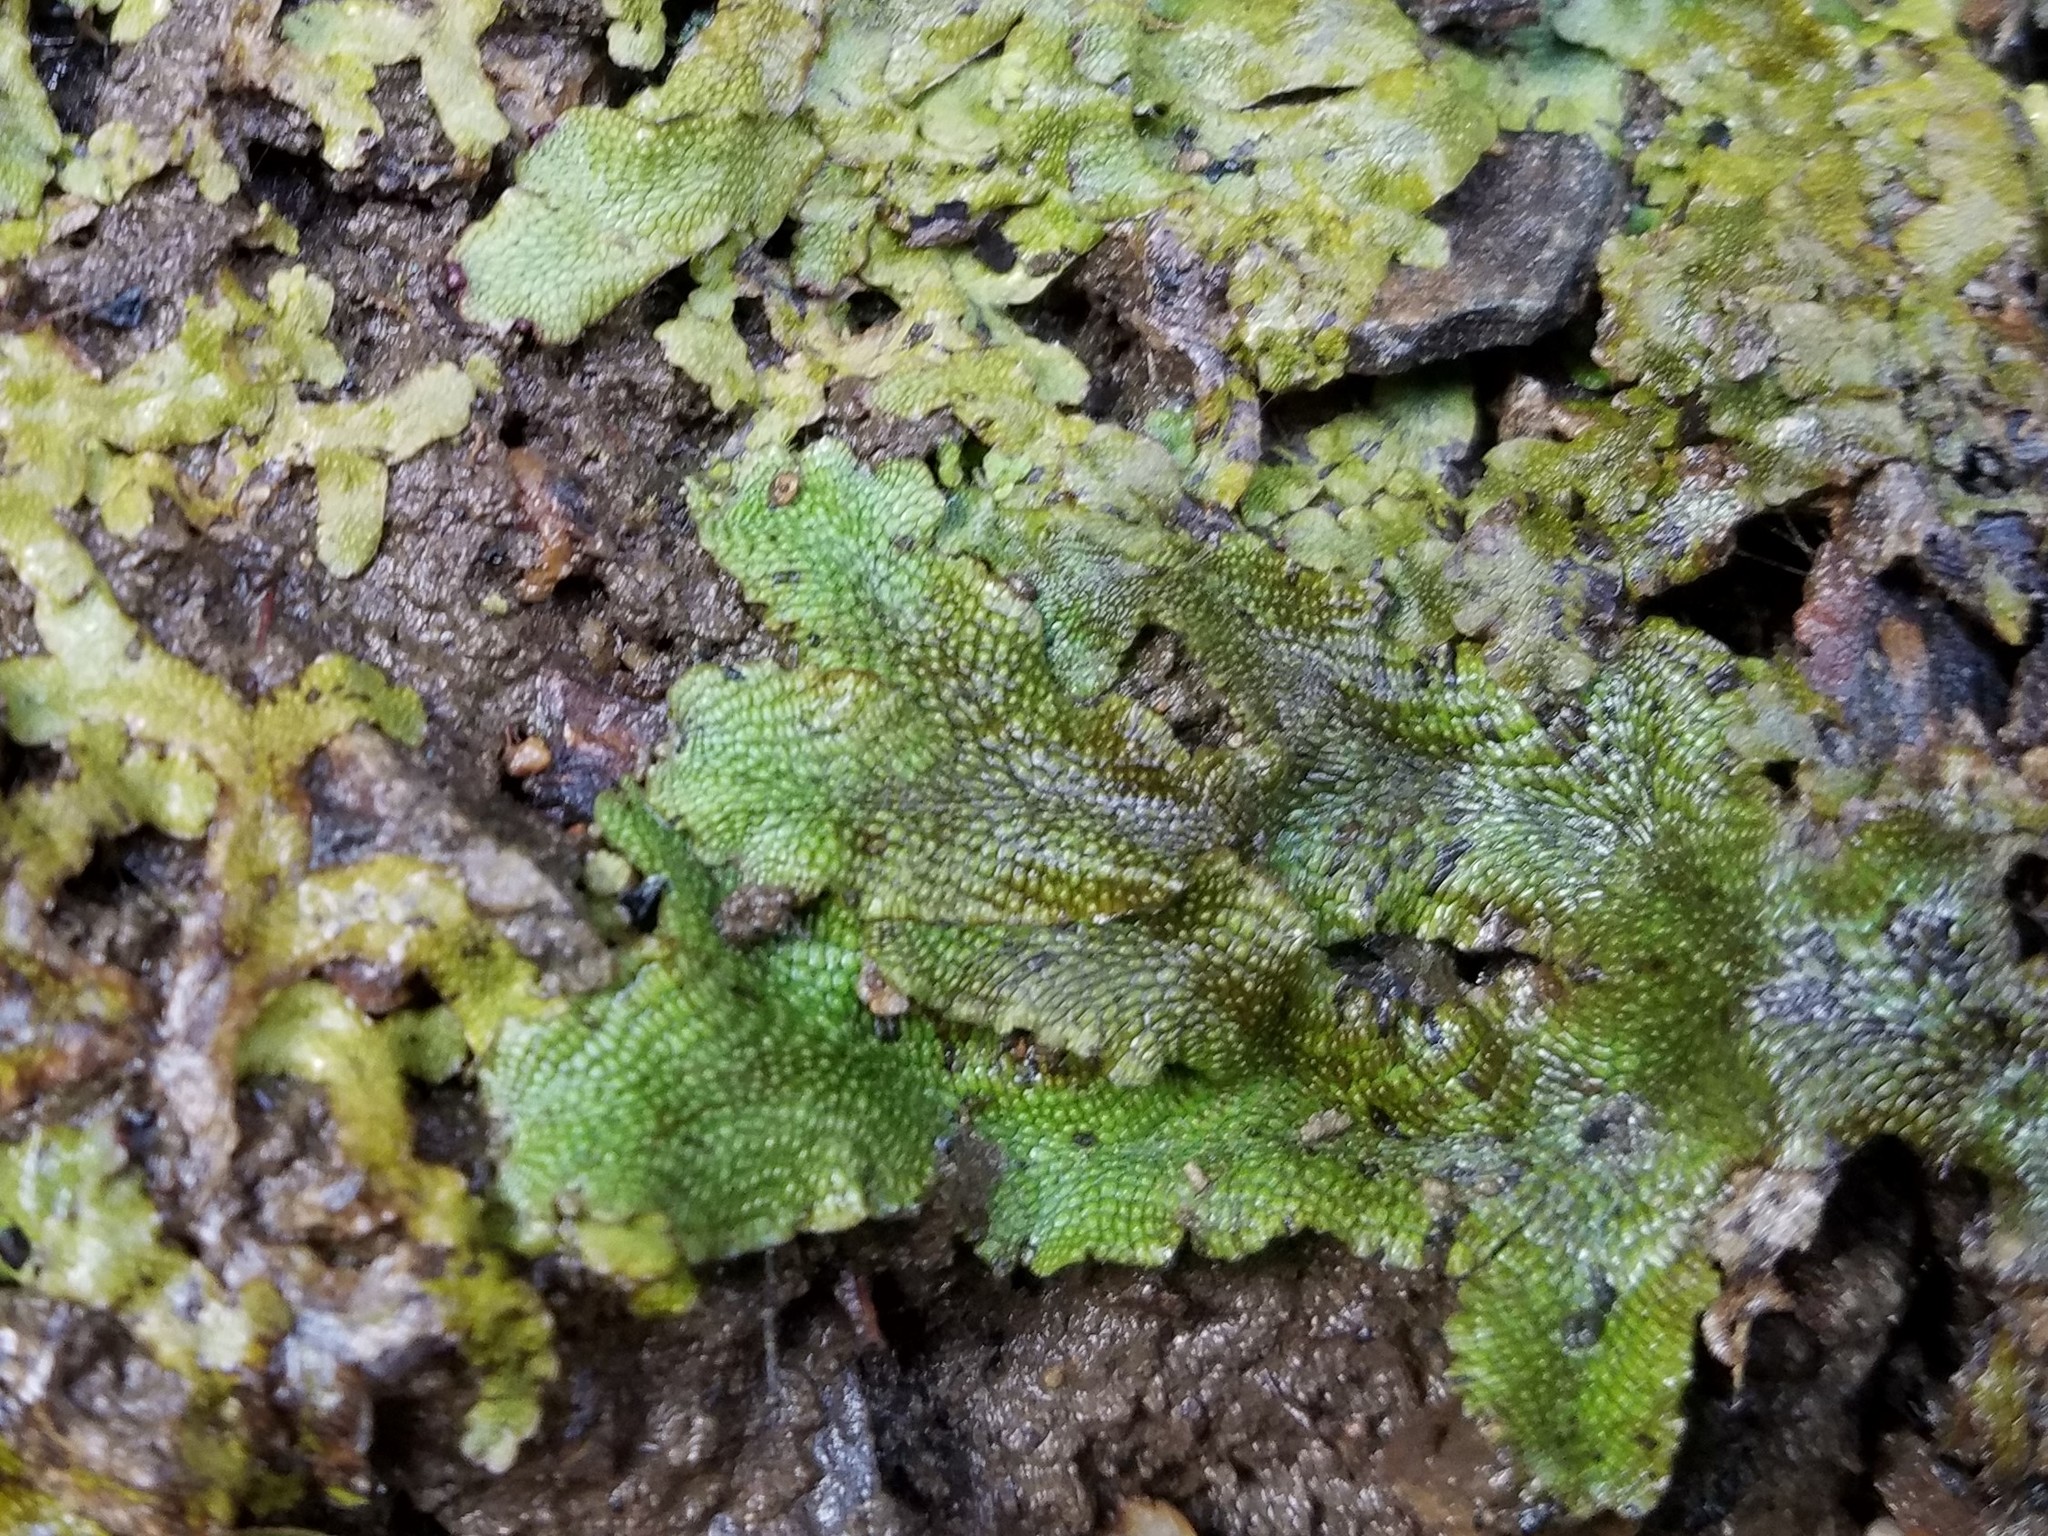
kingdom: Plantae
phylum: Marchantiophyta
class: Marchantiopsida
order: Marchantiales
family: Conocephalaceae
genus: Conocephalum
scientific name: Conocephalum salebrosum
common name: Cat-tongue liverwort
